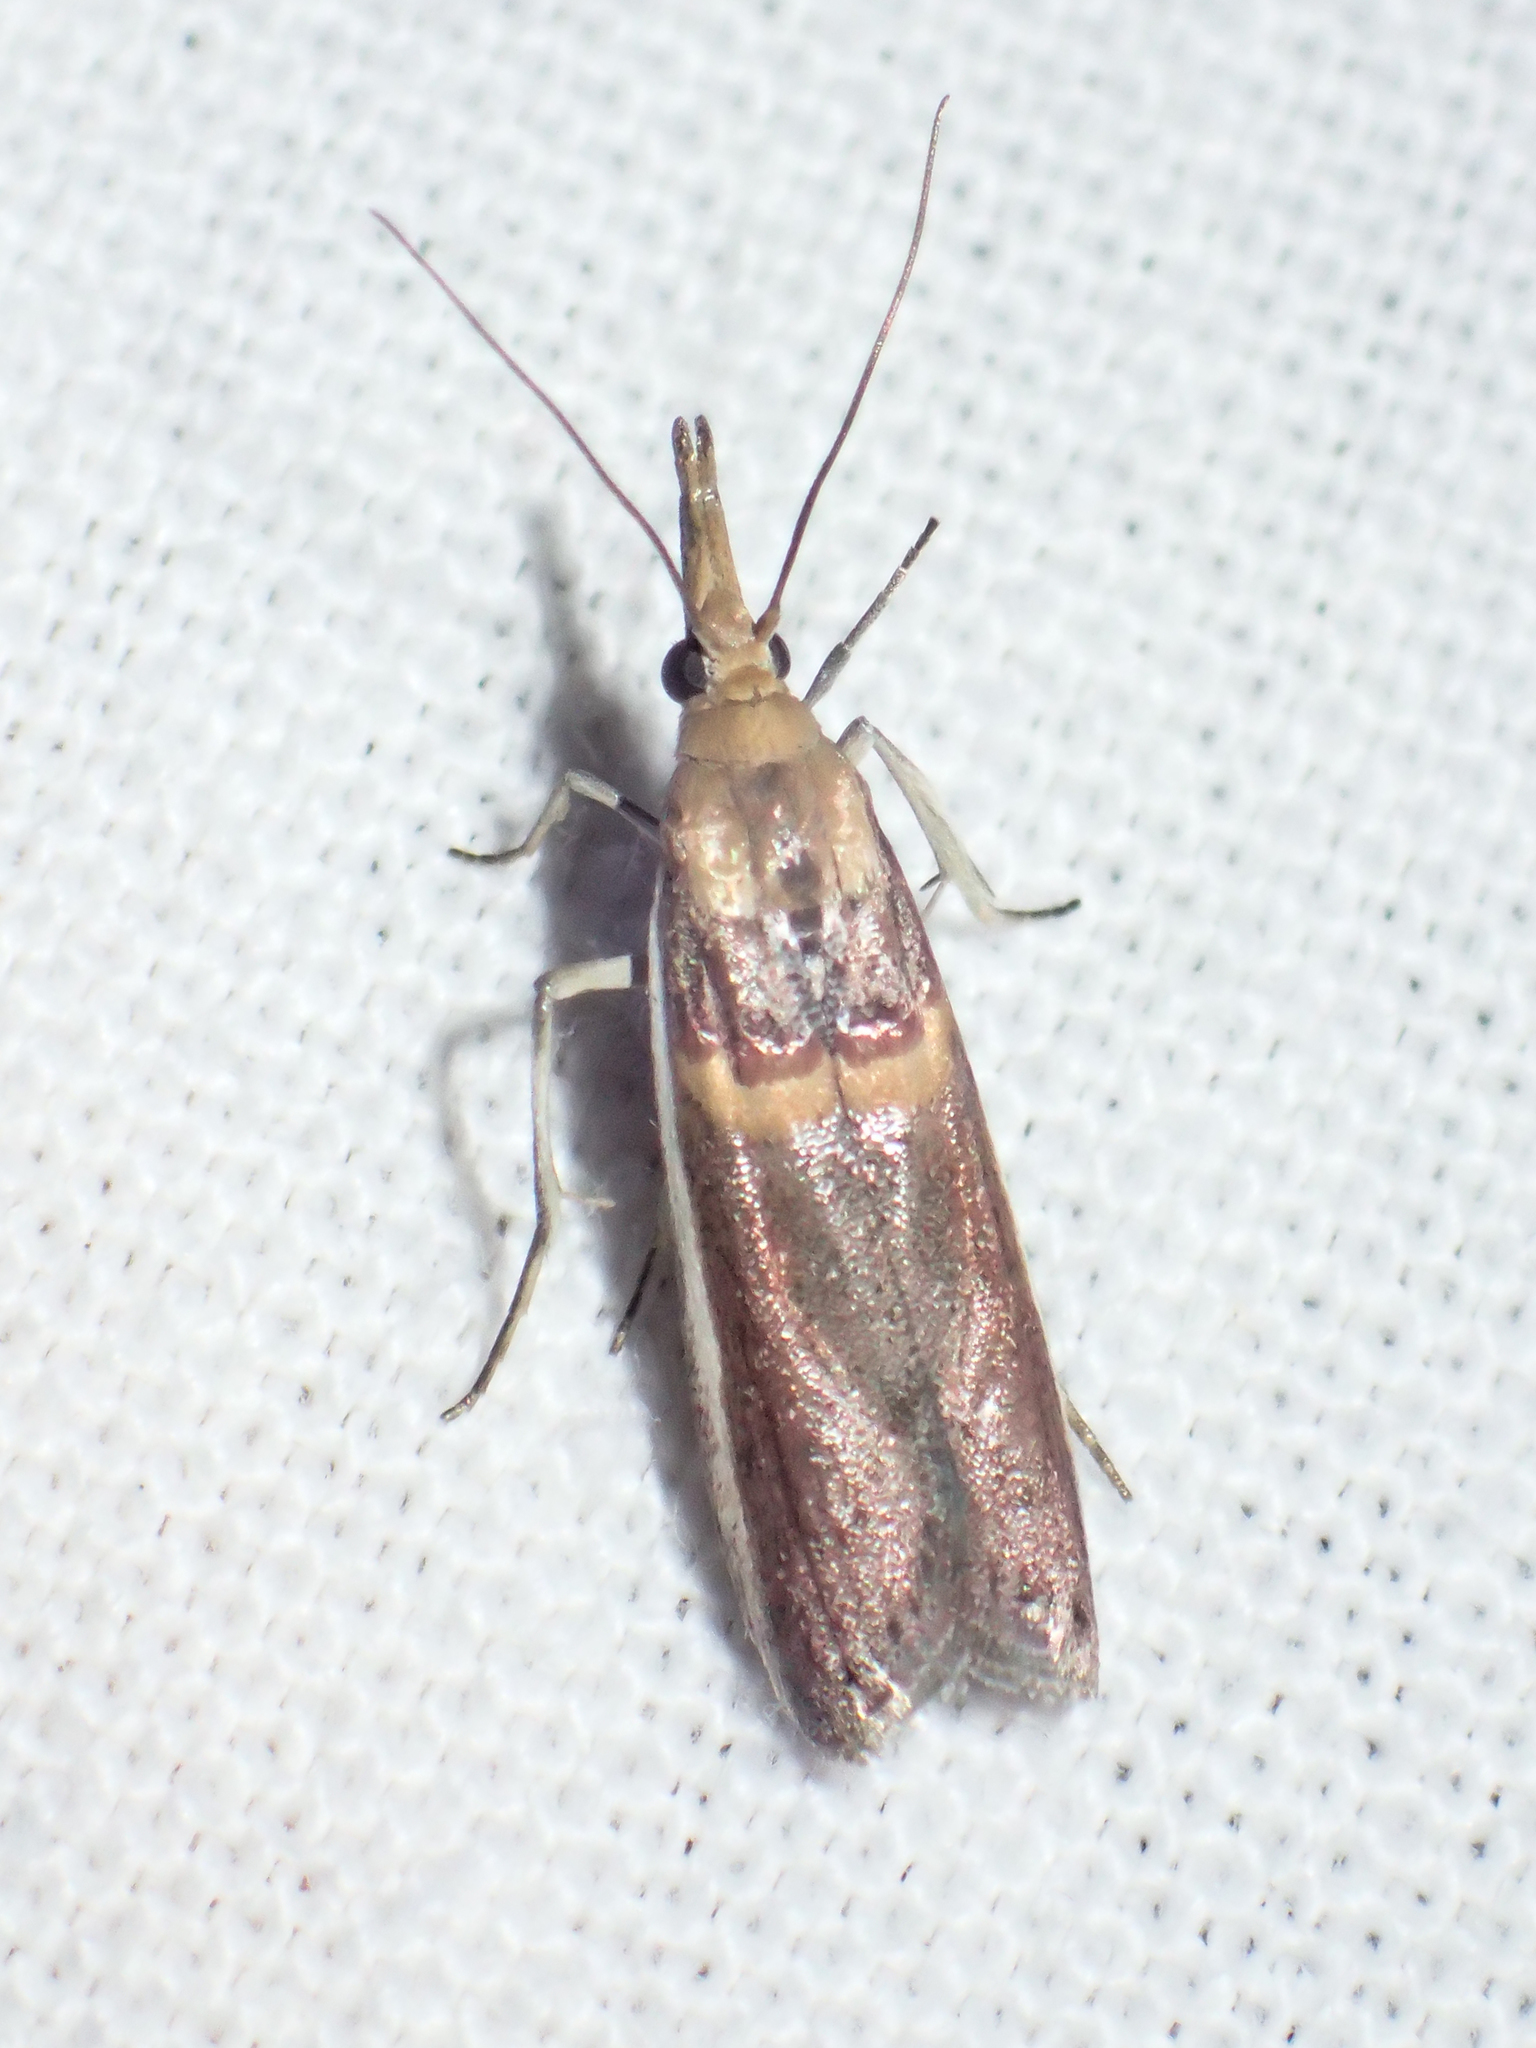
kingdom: Animalia
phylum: Arthropoda
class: Insecta
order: Lepidoptera
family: Pyralidae
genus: Etiella
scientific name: Etiella zinckenella
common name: Gold-banded etiella moth
